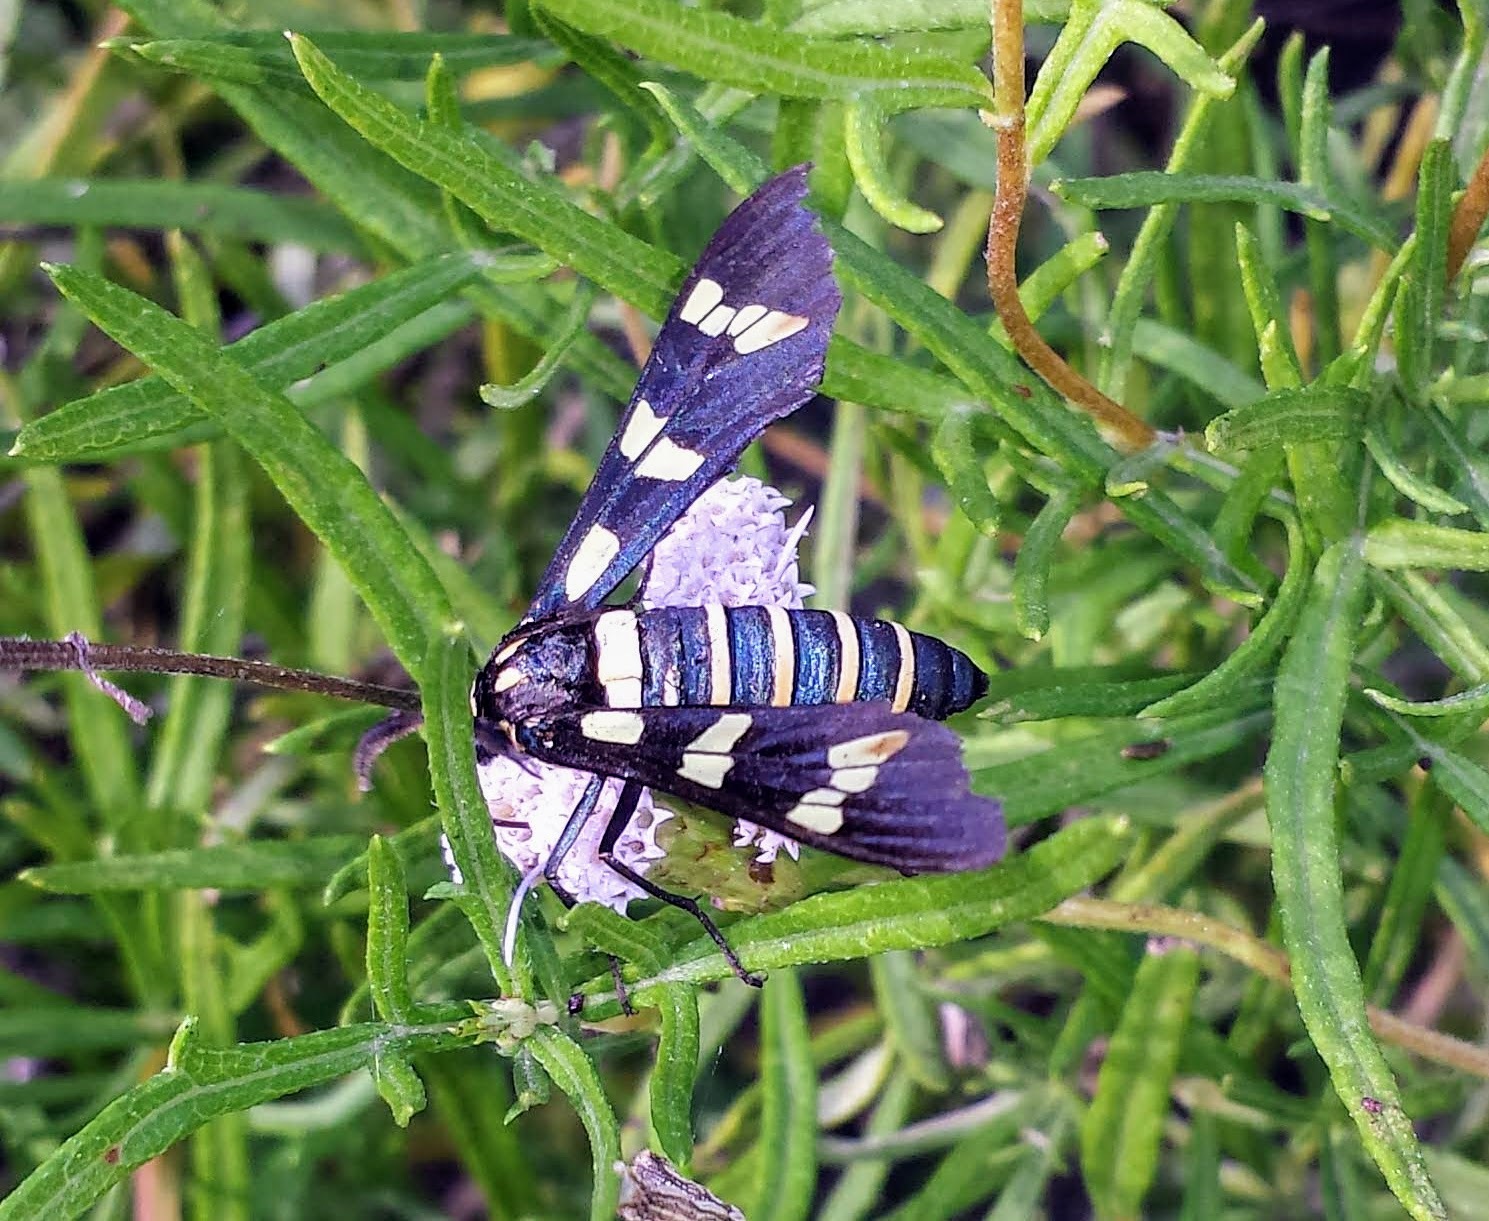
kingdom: Animalia
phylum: Arthropoda
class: Insecta
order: Lepidoptera
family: Erebidae
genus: Syntomeida
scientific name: Syntomeida melanthus
